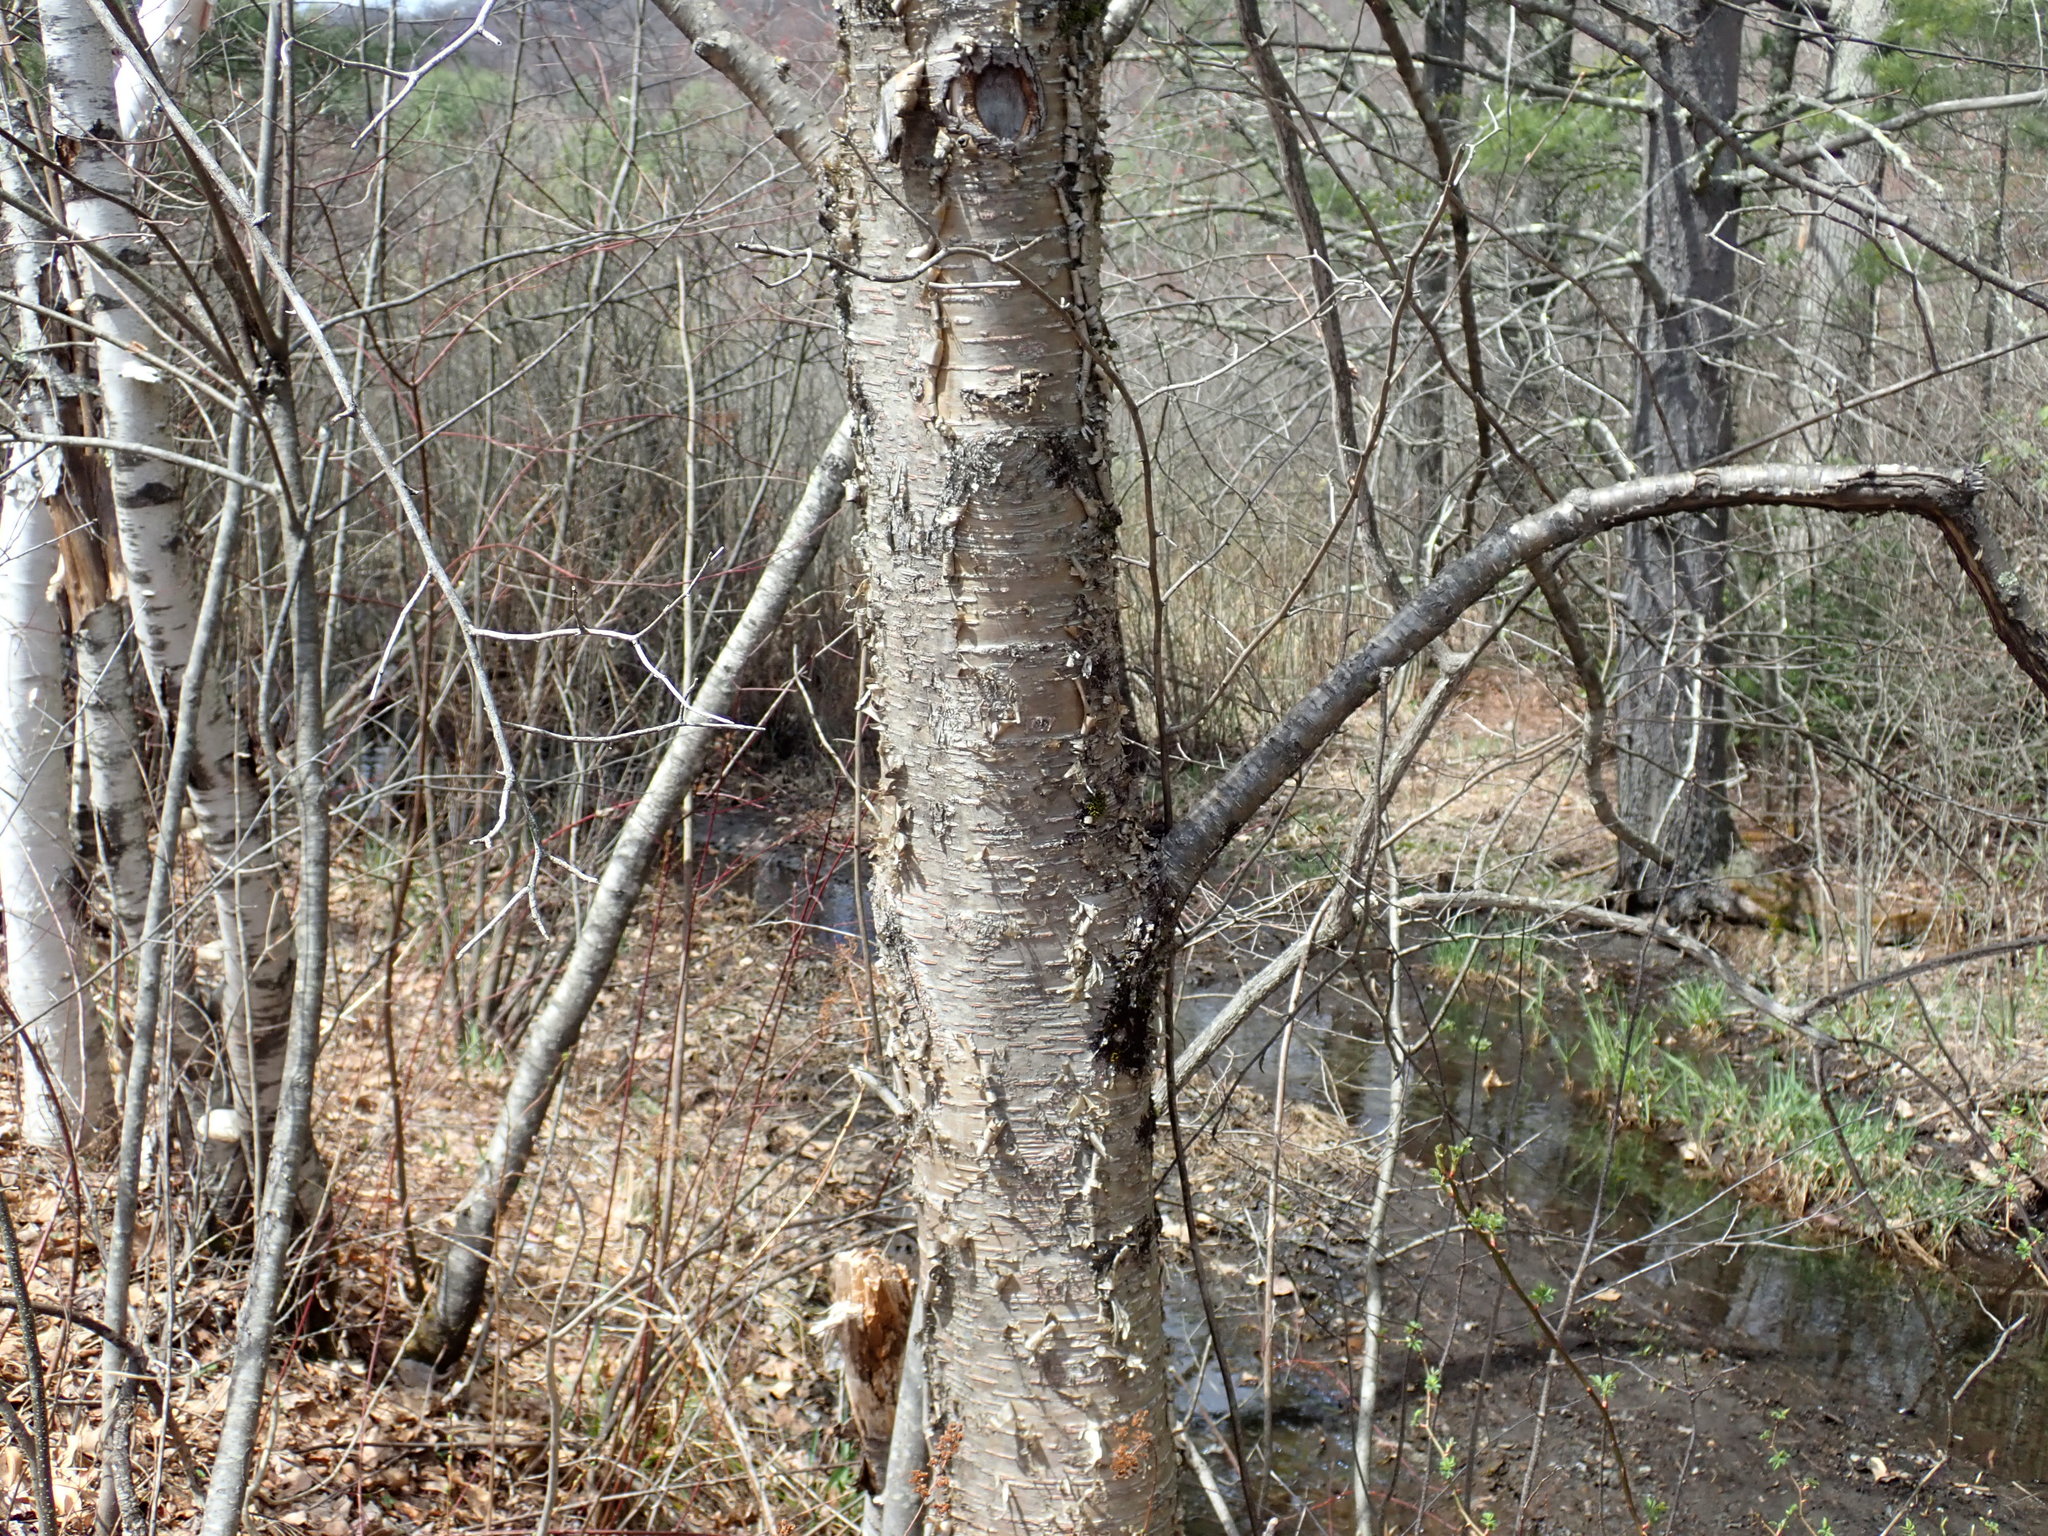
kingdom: Plantae
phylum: Tracheophyta
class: Magnoliopsida
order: Fagales
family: Betulaceae
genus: Betula
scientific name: Betula alleghaniensis
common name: Yellow birch
